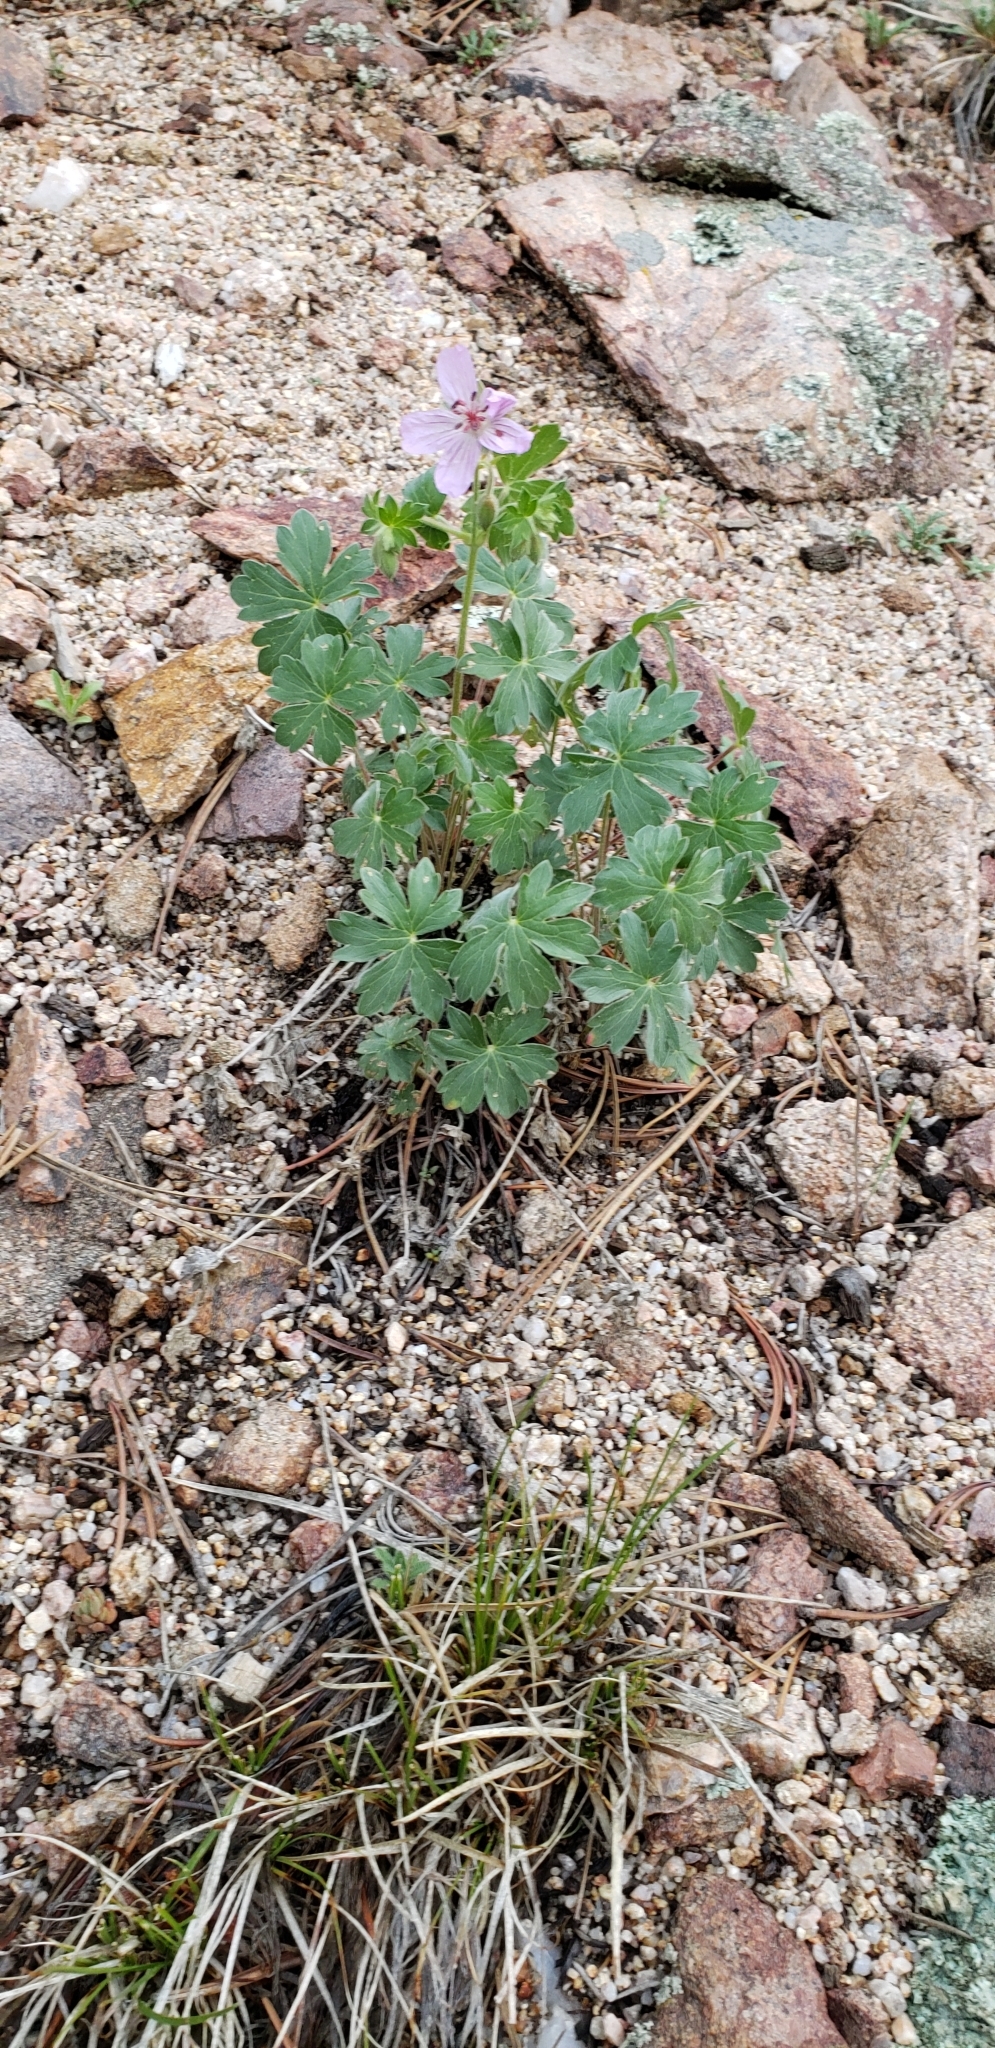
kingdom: Plantae
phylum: Tracheophyta
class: Magnoliopsida
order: Geraniales
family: Geraniaceae
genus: Geranium
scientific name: Geranium caespitosum
